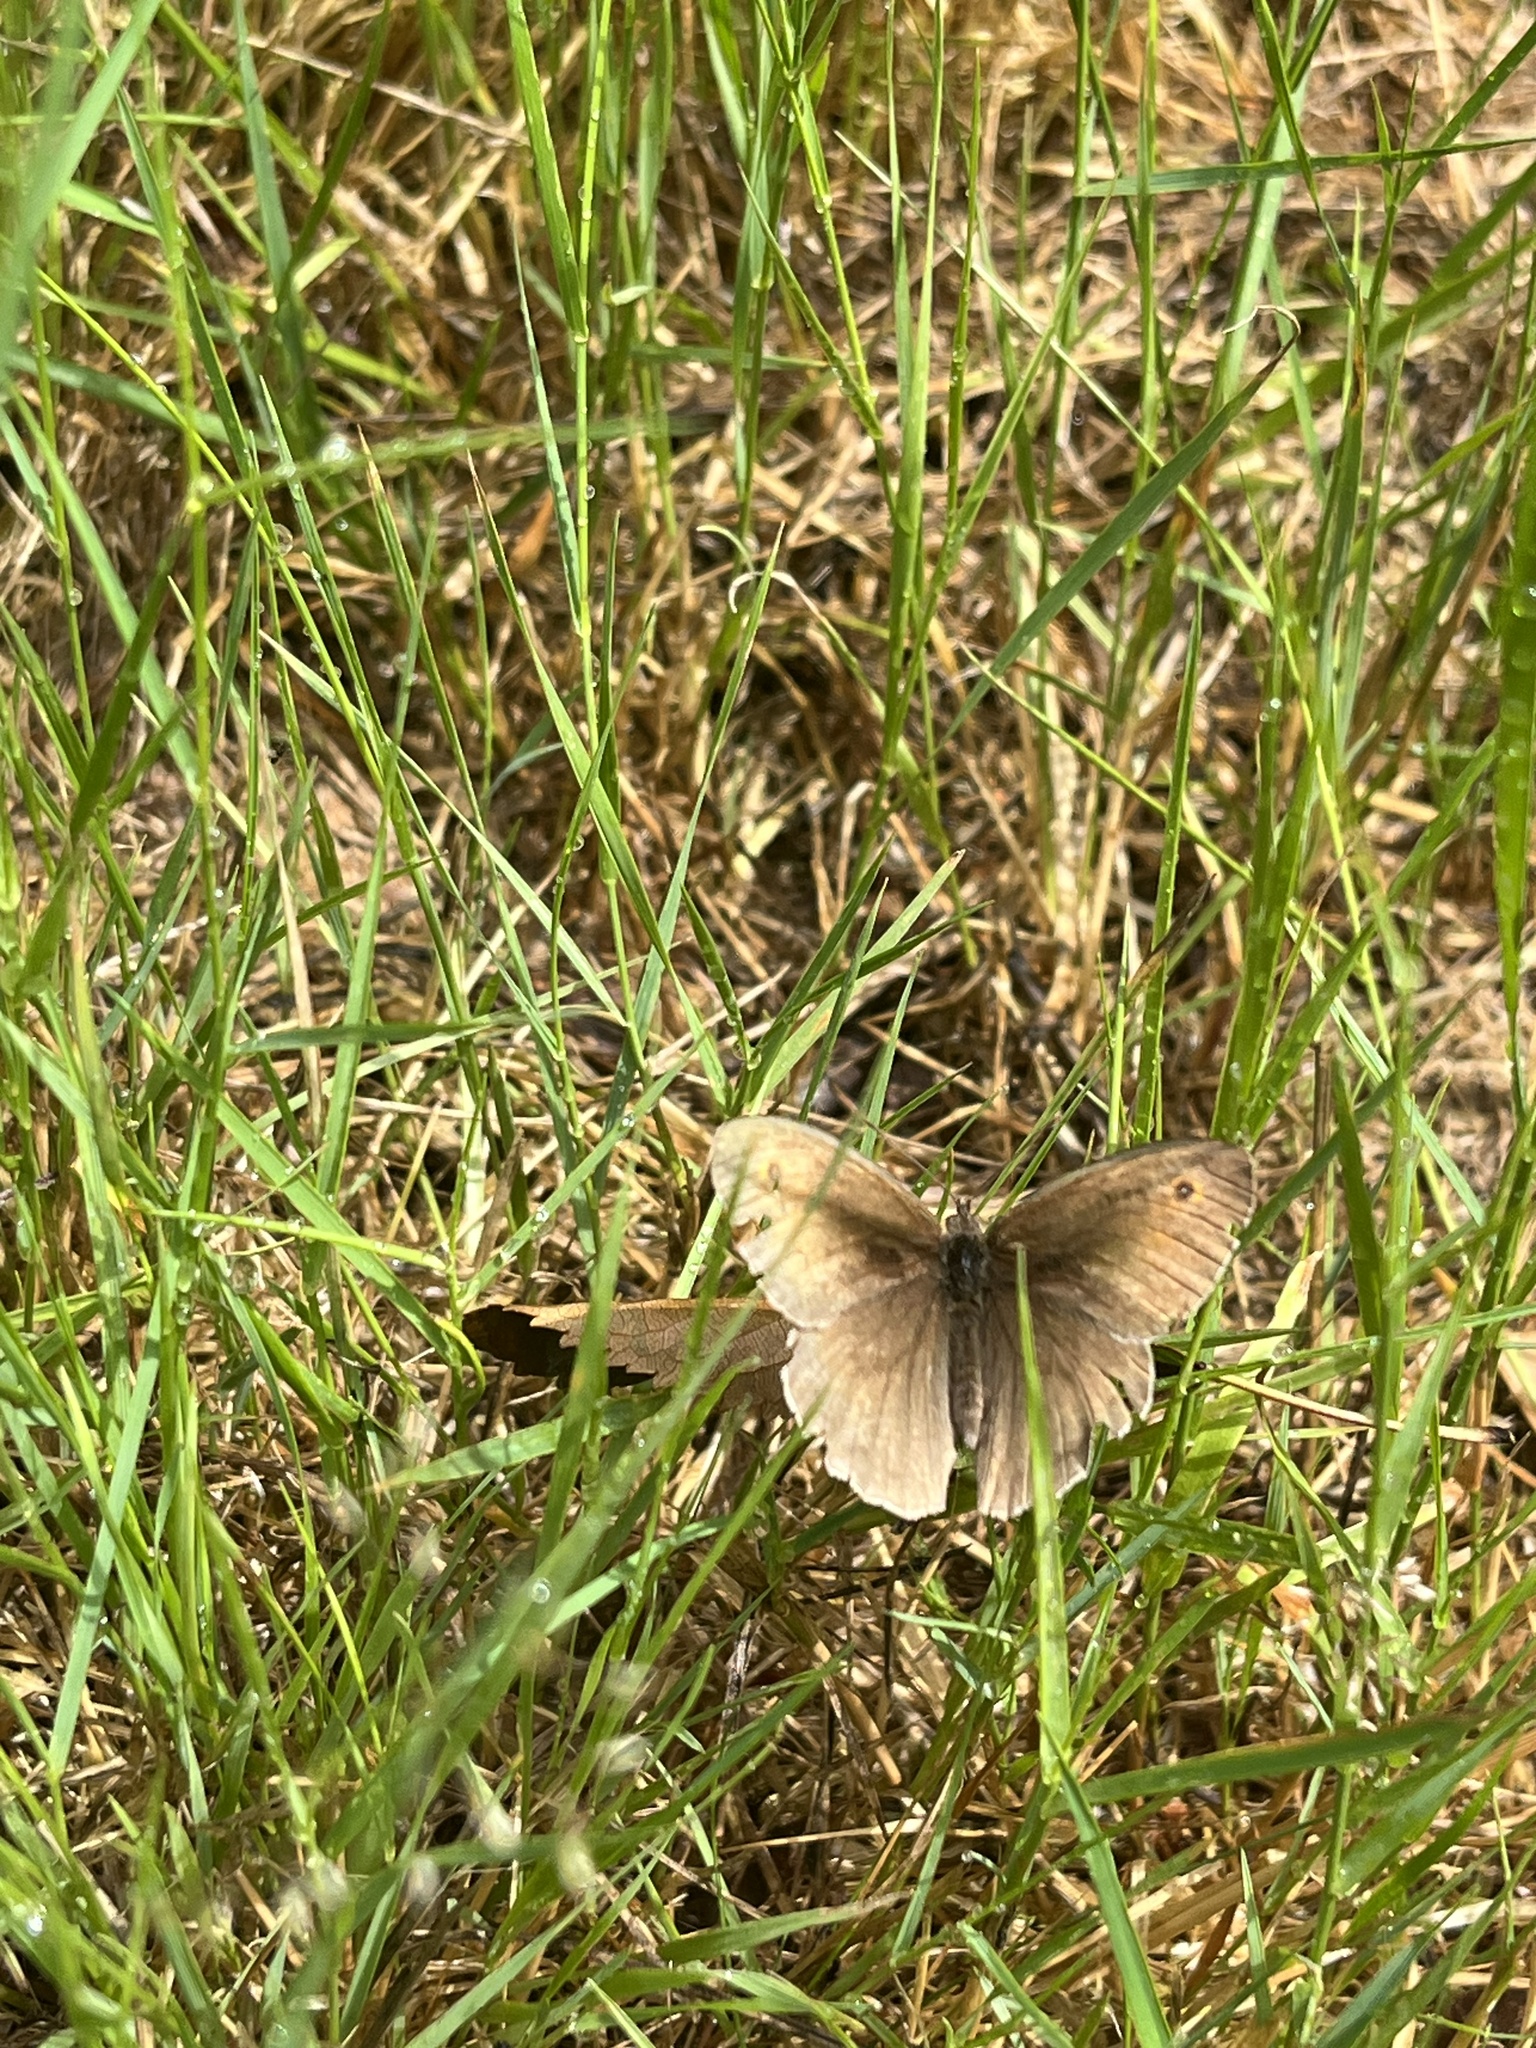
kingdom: Animalia
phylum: Arthropoda
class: Insecta
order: Lepidoptera
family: Nymphalidae
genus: Maniola
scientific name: Maniola jurtina
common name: Meadow brown
